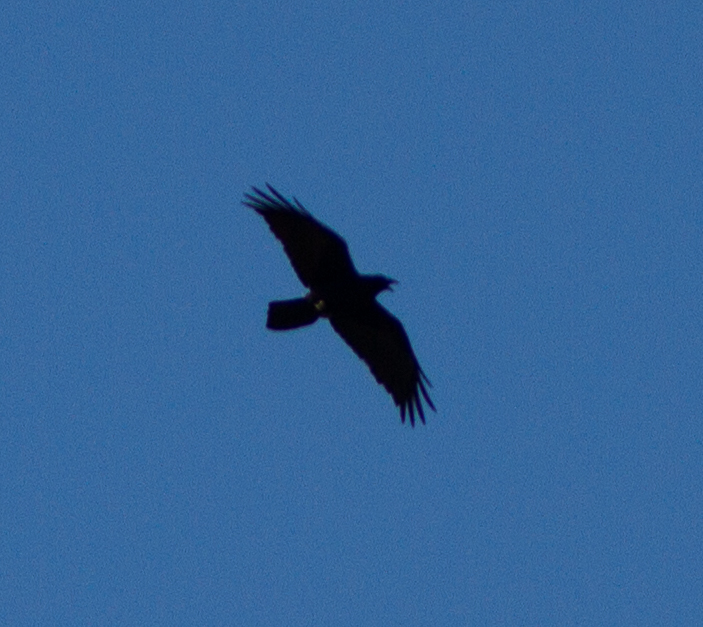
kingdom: Animalia
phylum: Chordata
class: Aves
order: Passeriformes
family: Corvidae
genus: Corvus
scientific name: Corvus corax
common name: Common raven
